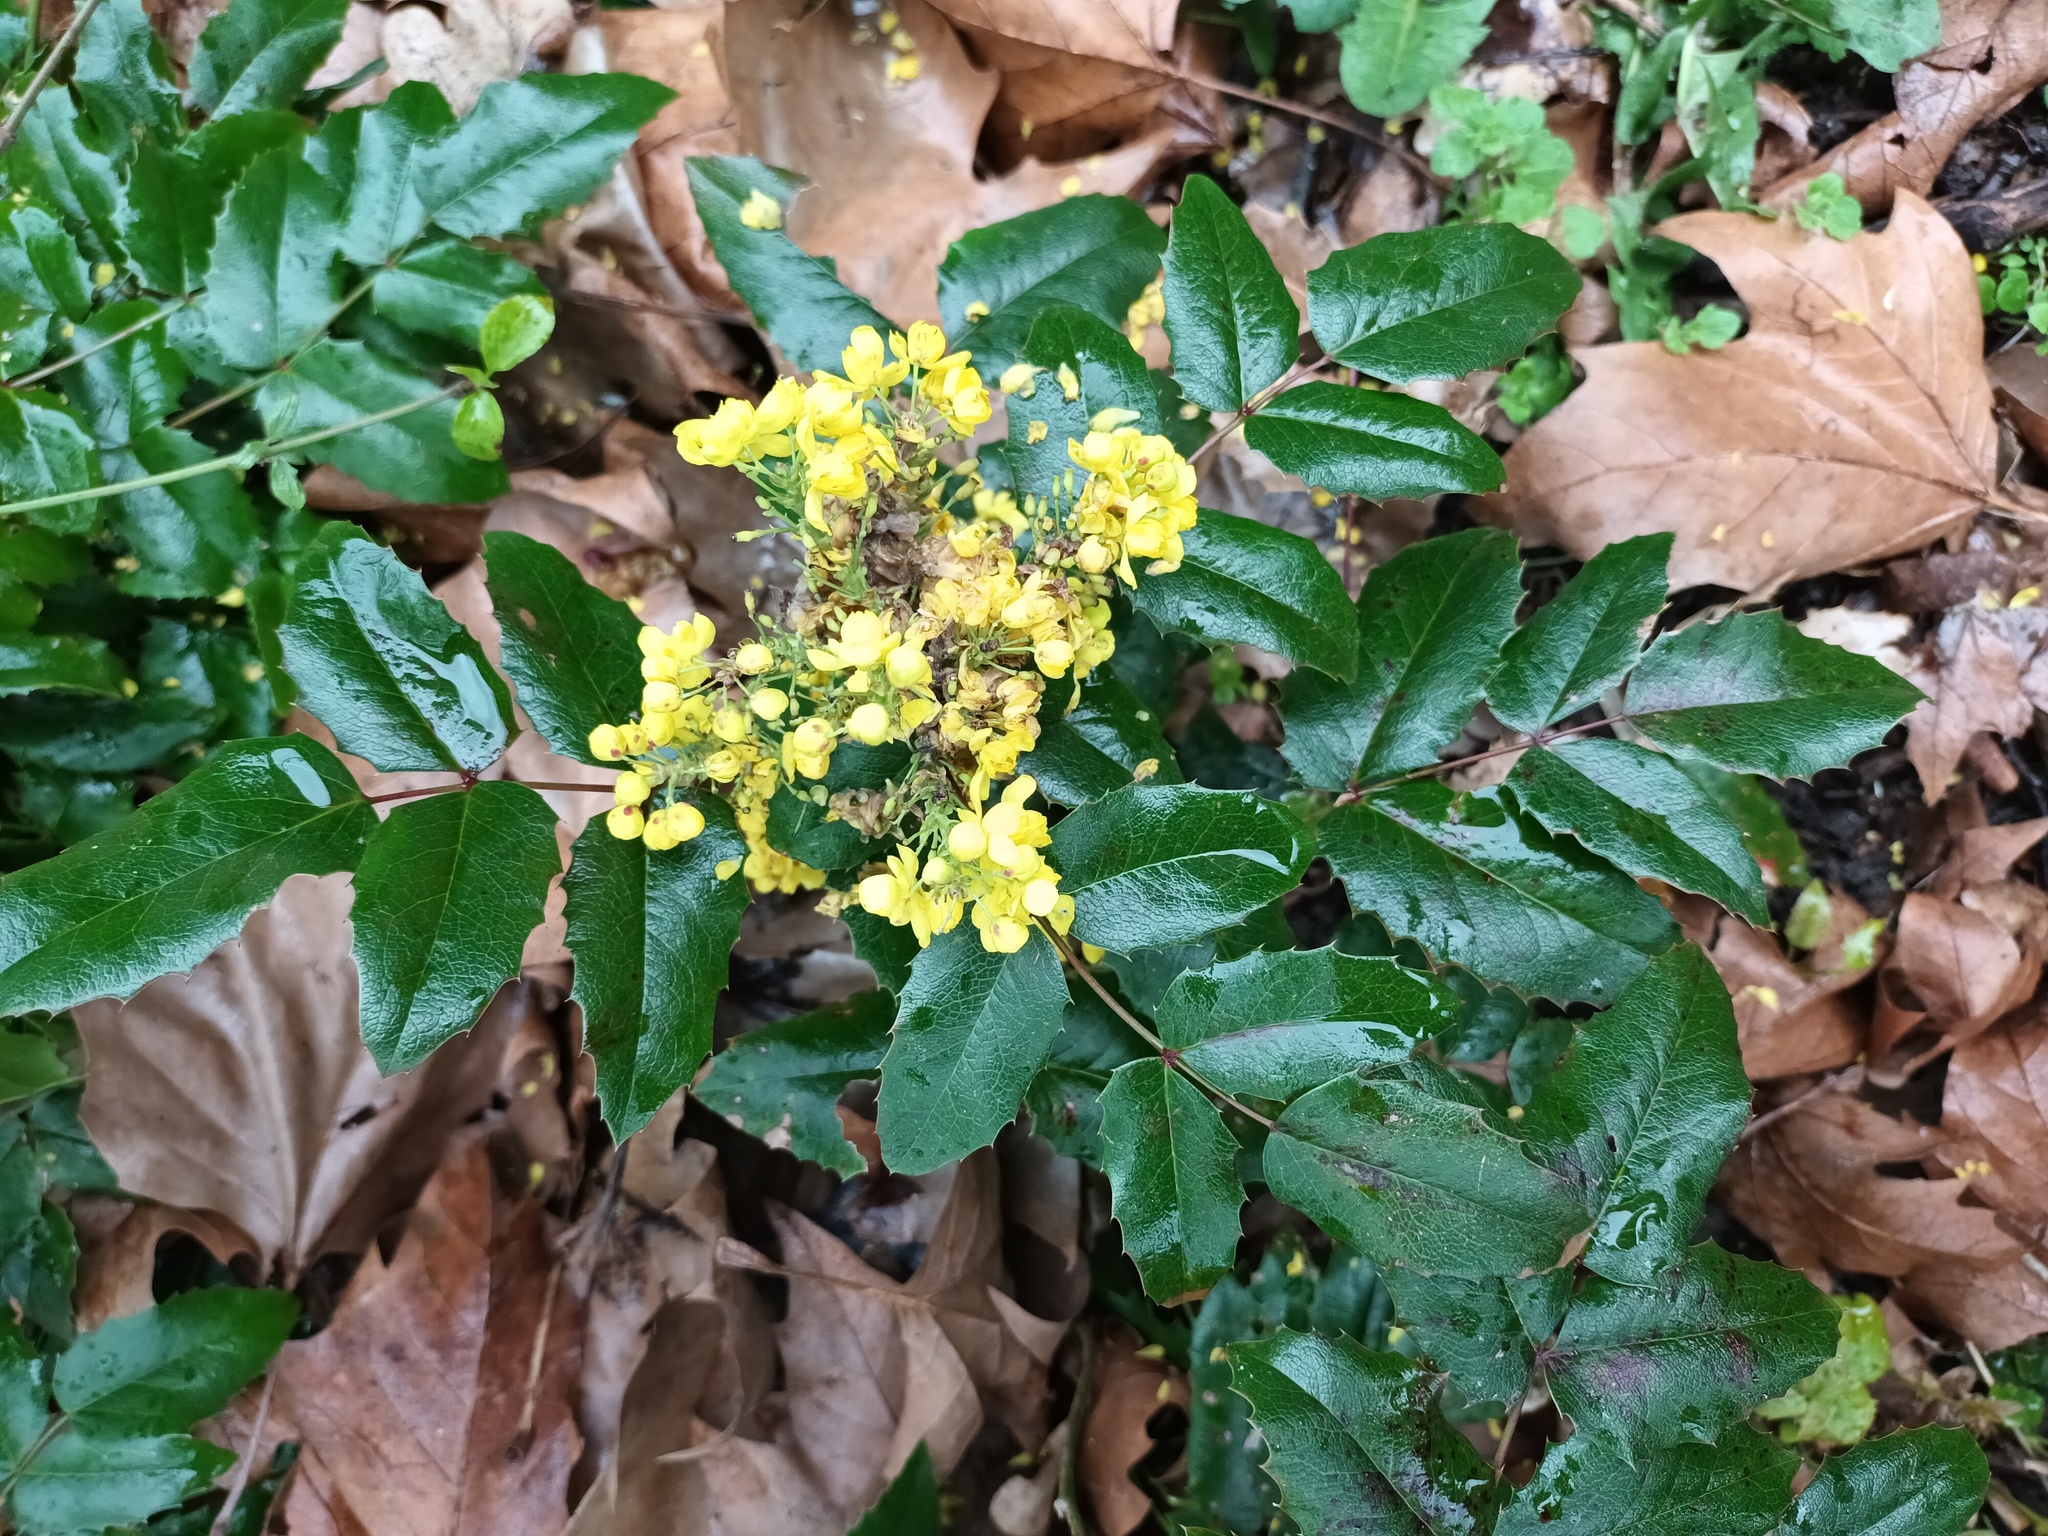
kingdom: Plantae
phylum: Tracheophyta
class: Magnoliopsida
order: Ranunculales
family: Berberidaceae
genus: Mahonia
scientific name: Mahonia aquifolium
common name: Oregon-grape
